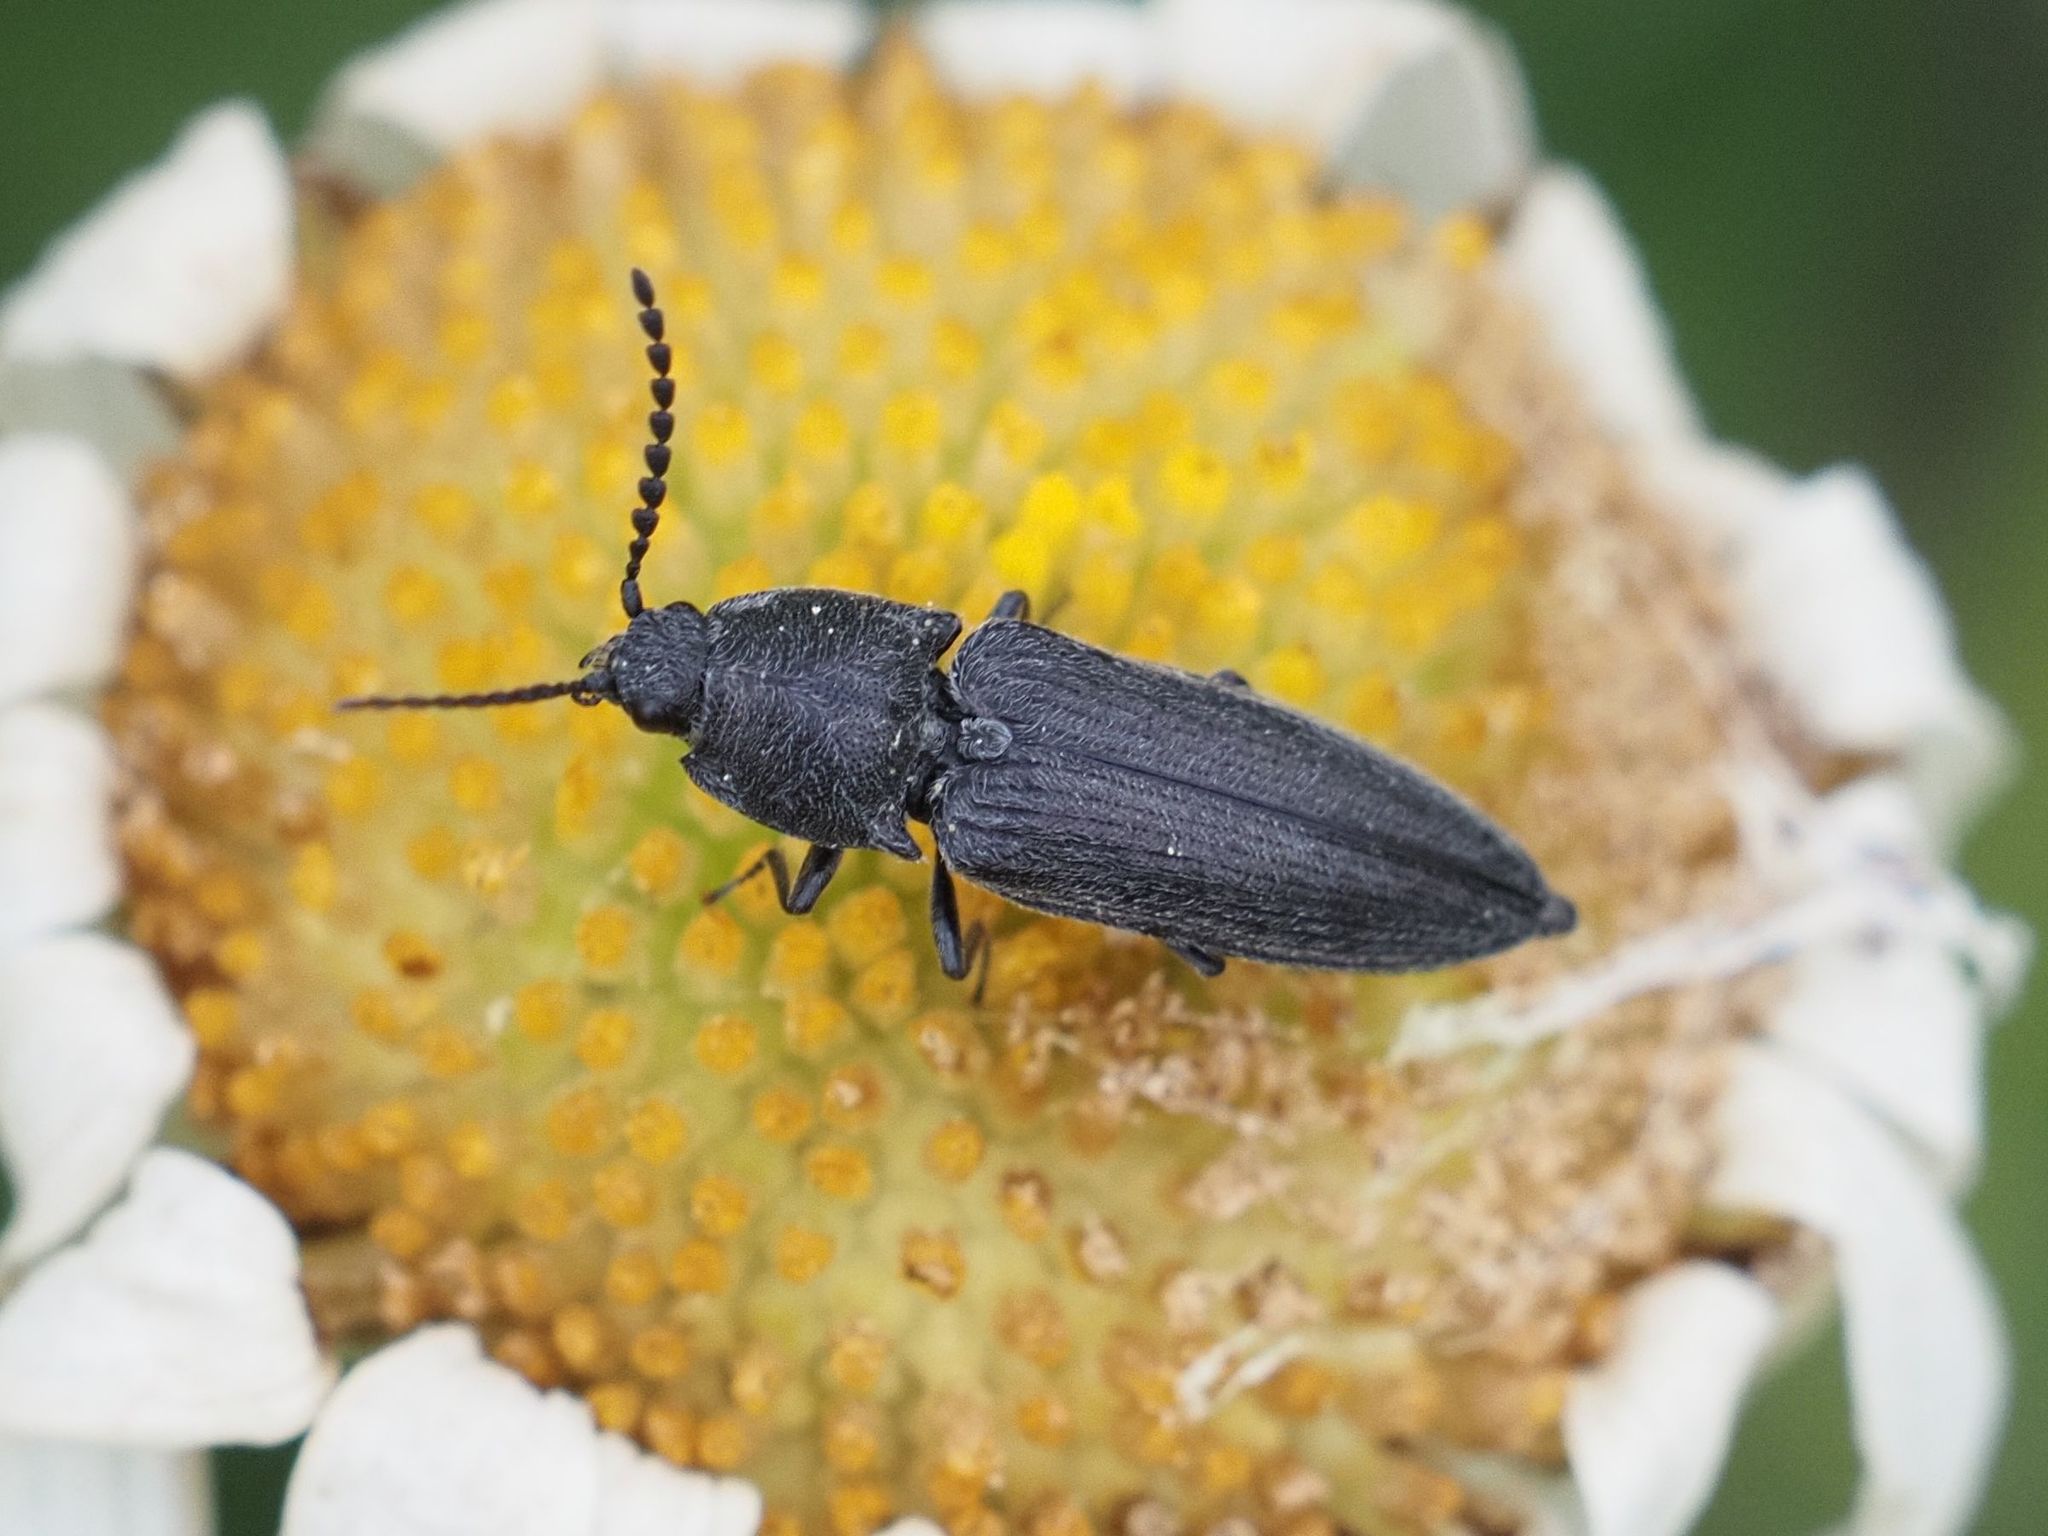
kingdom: Animalia
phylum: Arthropoda
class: Insecta
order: Coleoptera
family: Elateridae
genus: Cidnopus
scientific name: Cidnopus pilosus
